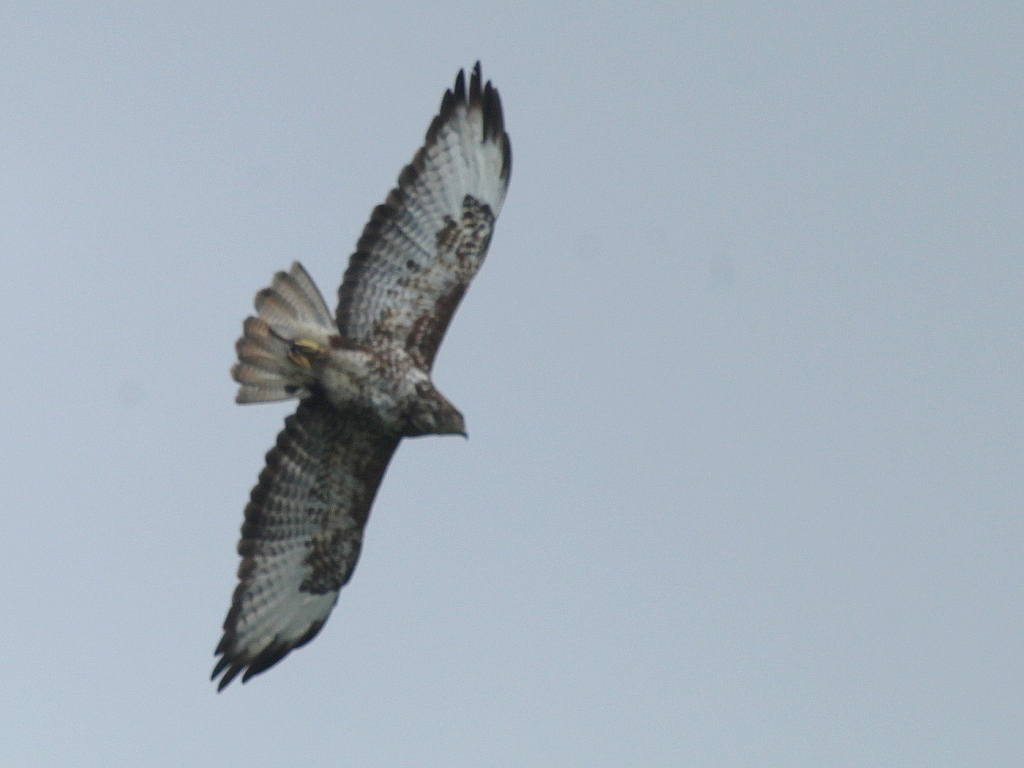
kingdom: Animalia
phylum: Chordata
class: Aves
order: Accipitriformes
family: Accipitridae
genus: Buteo
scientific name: Buteo buteo
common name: Common buzzard
